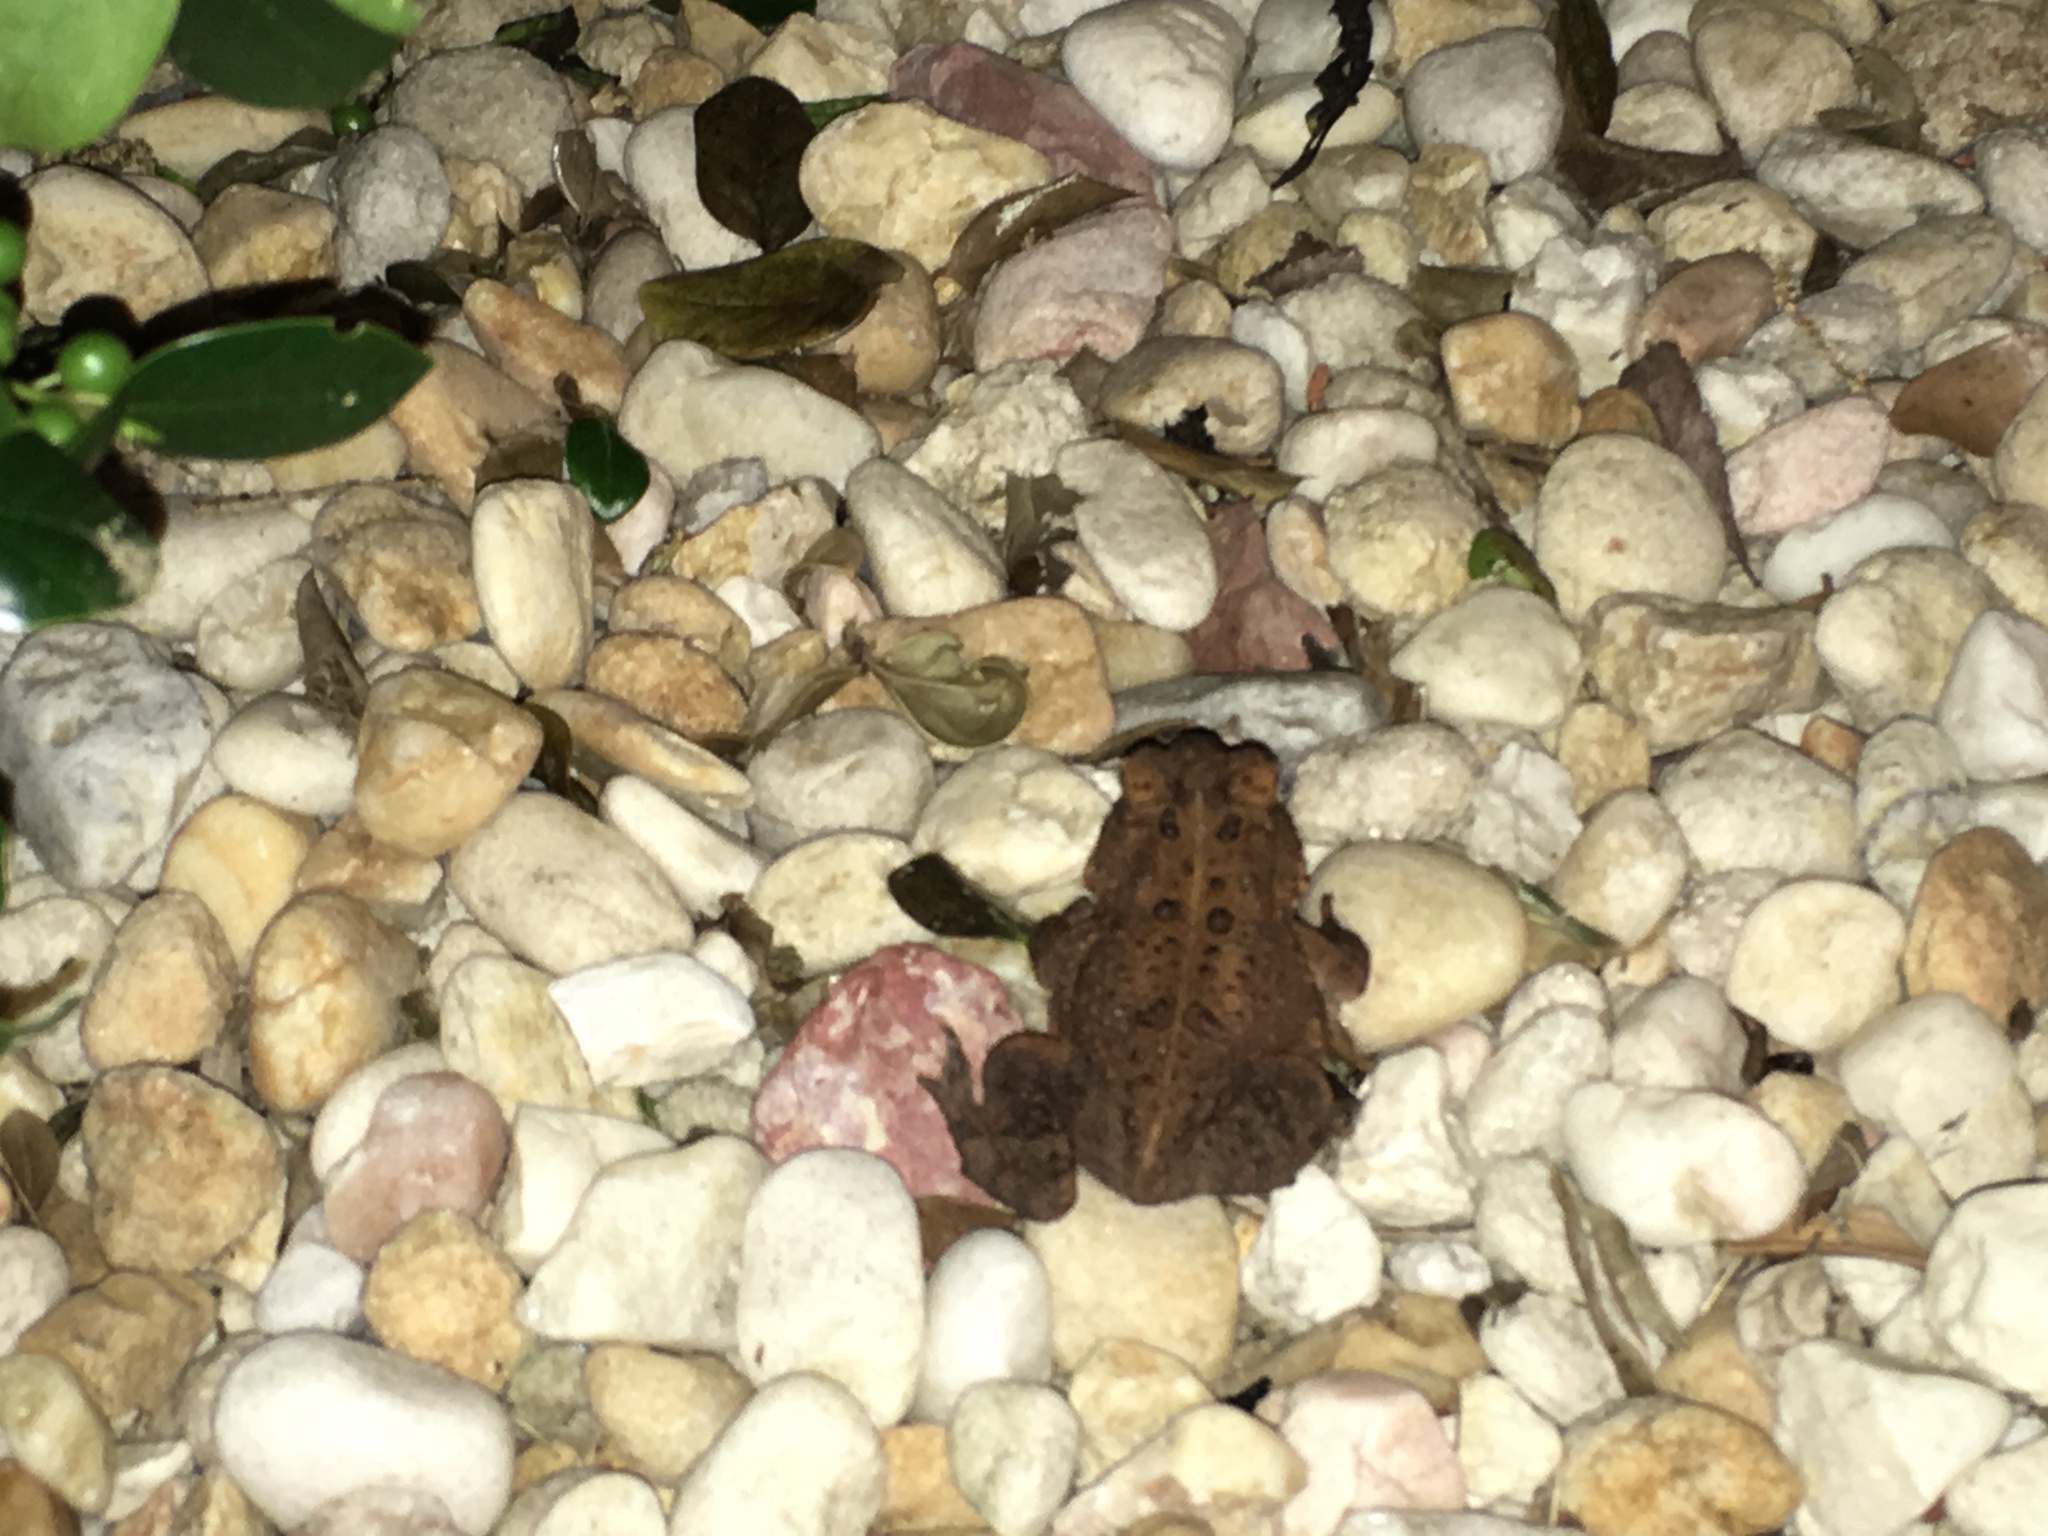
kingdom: Animalia
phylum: Chordata
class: Amphibia
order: Anura
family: Bufonidae
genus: Anaxyrus
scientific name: Anaxyrus
